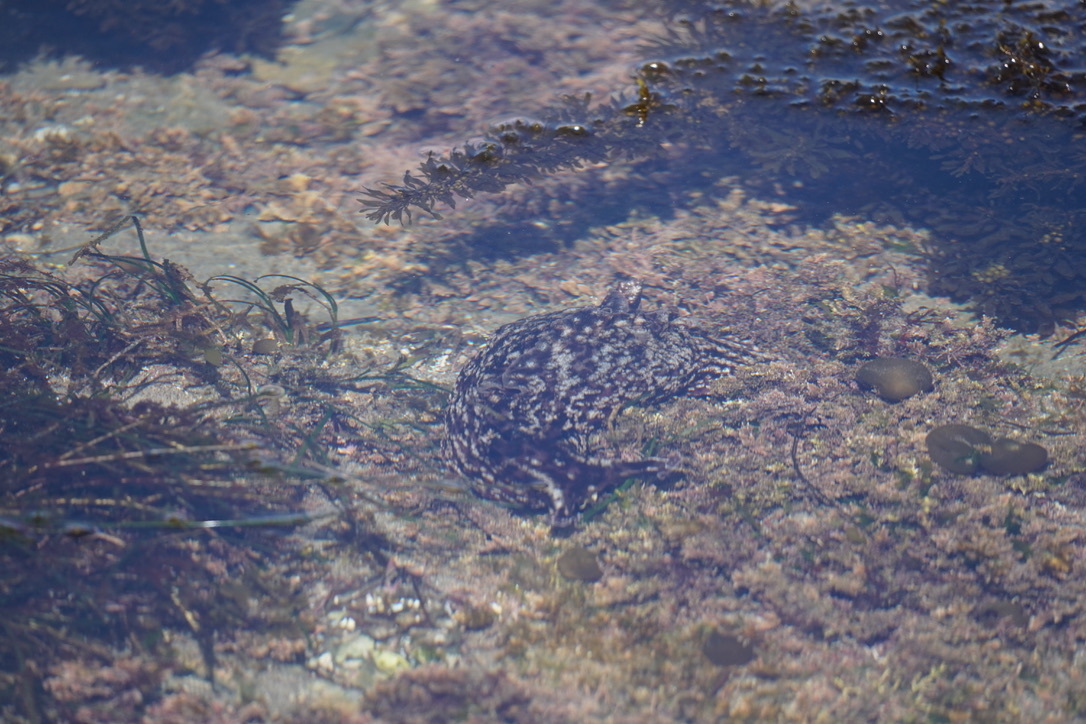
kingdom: Animalia
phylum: Mollusca
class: Gastropoda
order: Aplysiida
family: Aplysiidae
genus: Aplysia
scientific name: Aplysia californica
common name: California seahare
